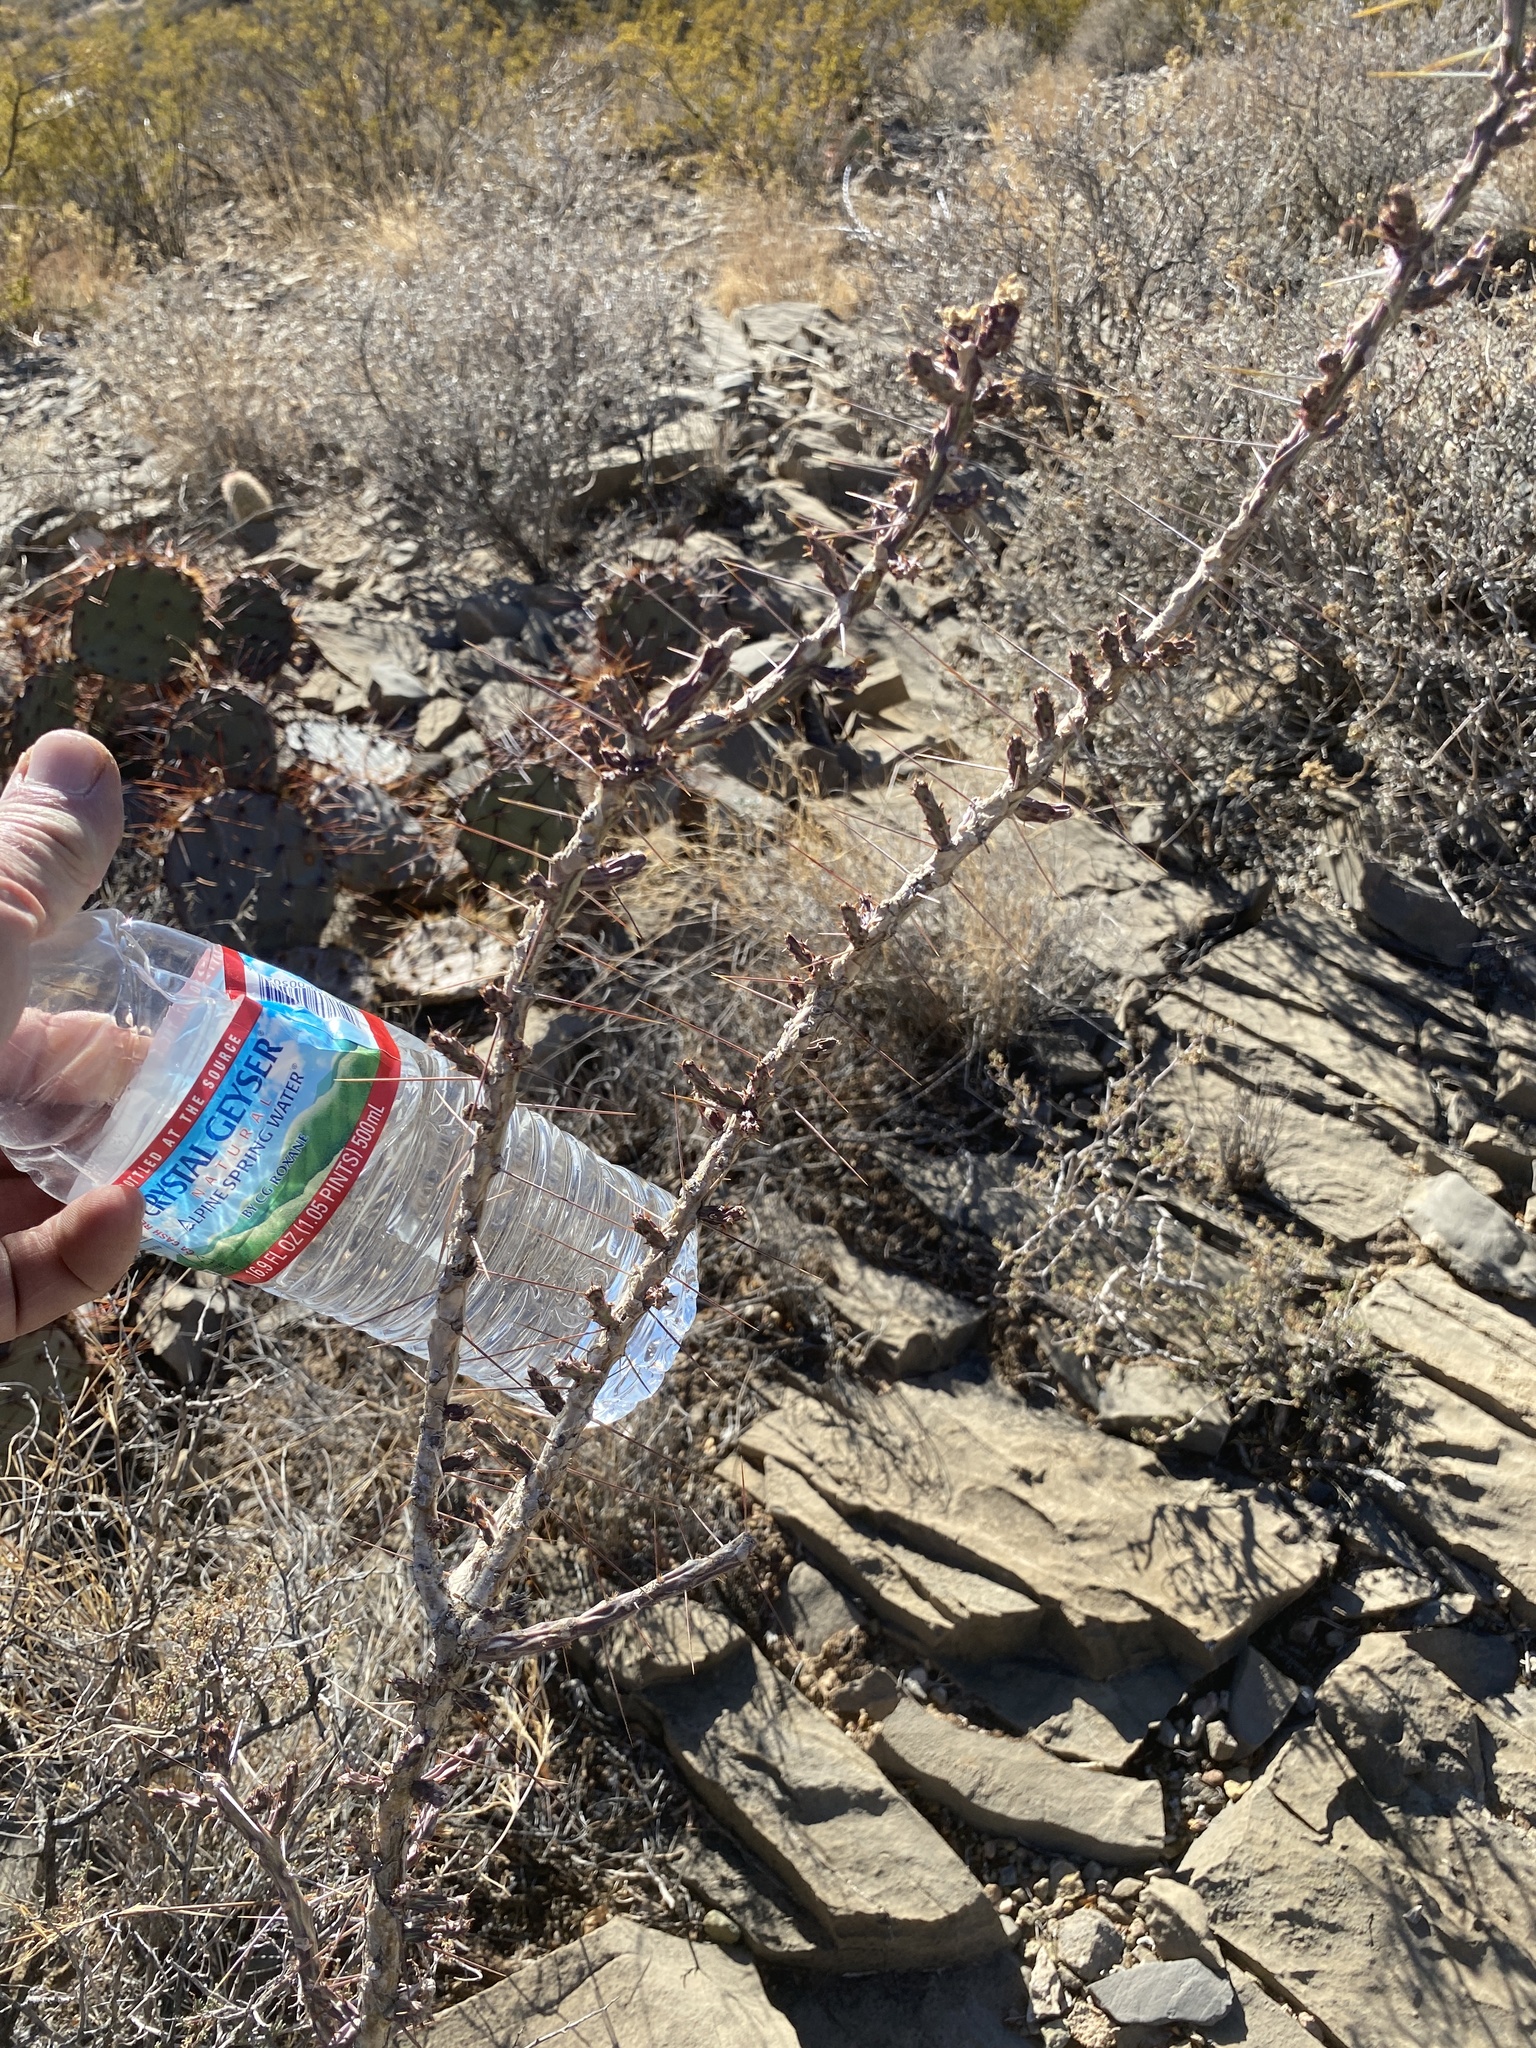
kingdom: Plantae
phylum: Tracheophyta
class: Magnoliopsida
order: Caryophyllales
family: Cactaceae
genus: Cylindropuntia
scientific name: Cylindropuntia leptocaulis
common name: Christmas cactus
